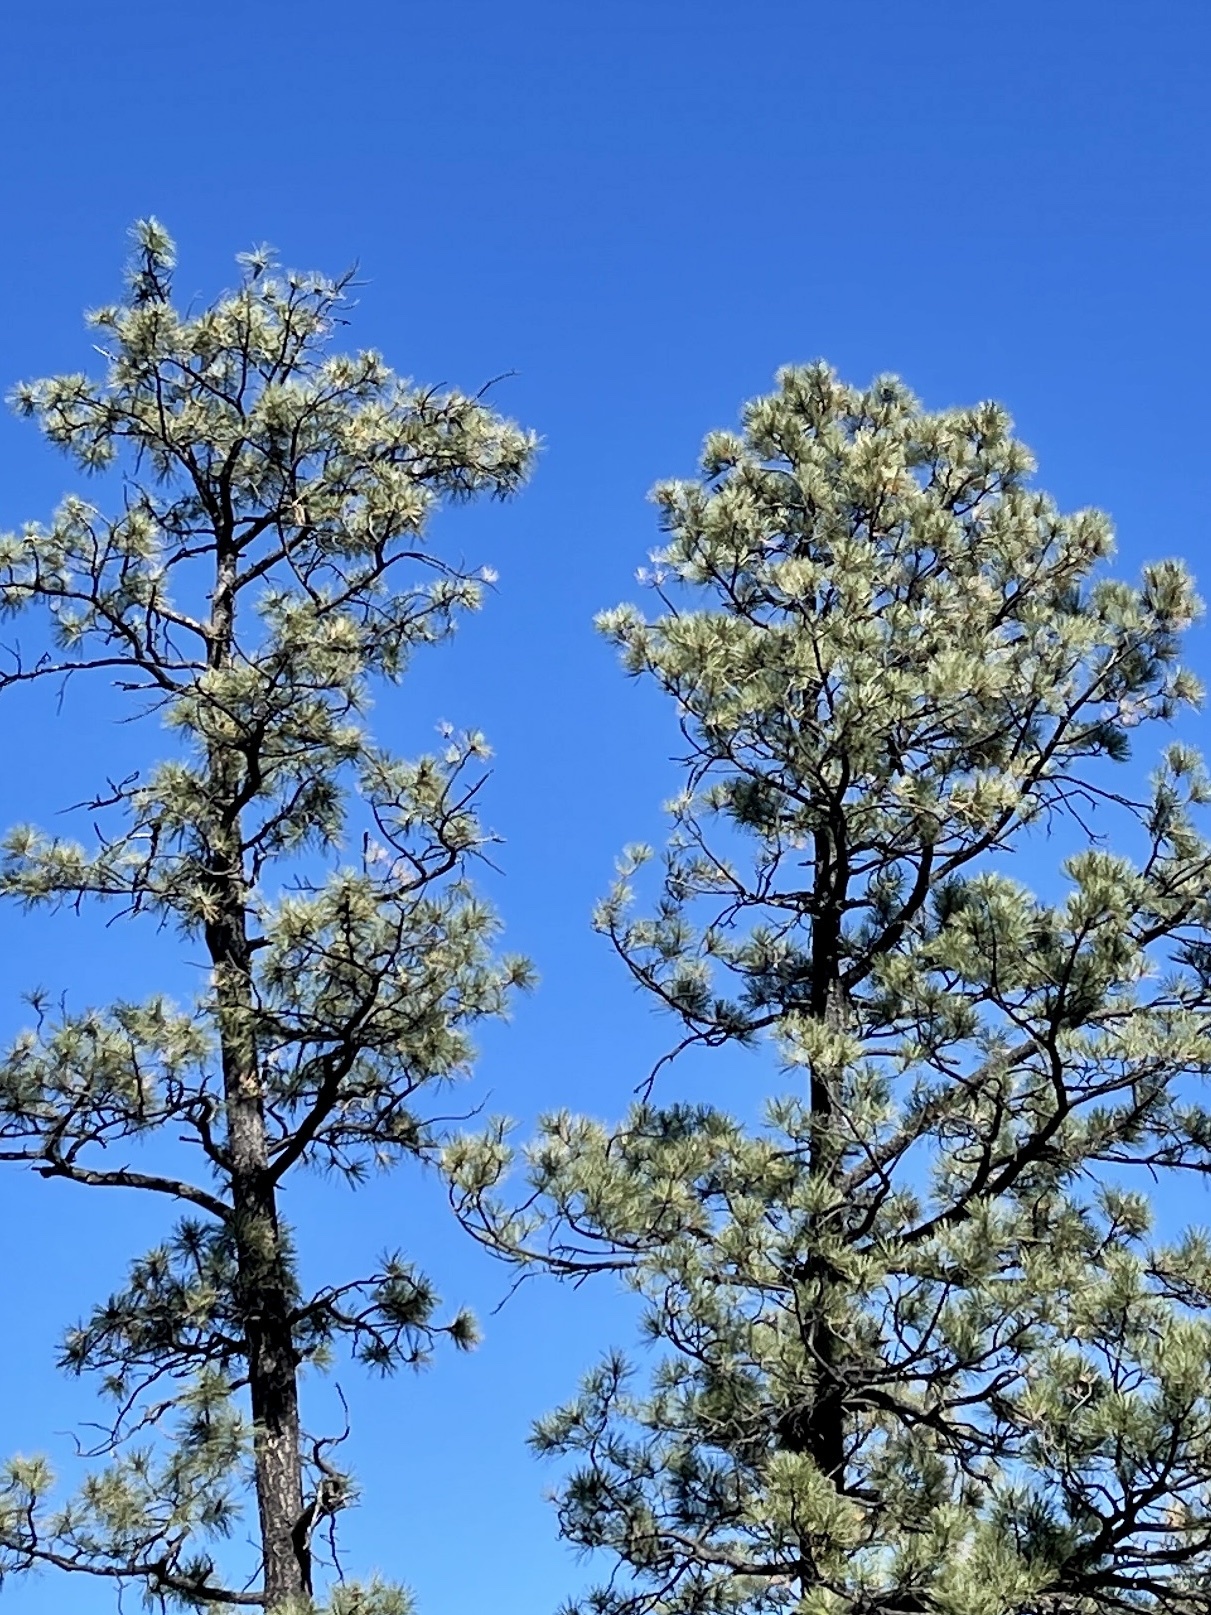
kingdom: Plantae
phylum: Tracheophyta
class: Pinopsida
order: Pinales
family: Pinaceae
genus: Pinus
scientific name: Pinus ponderosa
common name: Western yellow-pine
